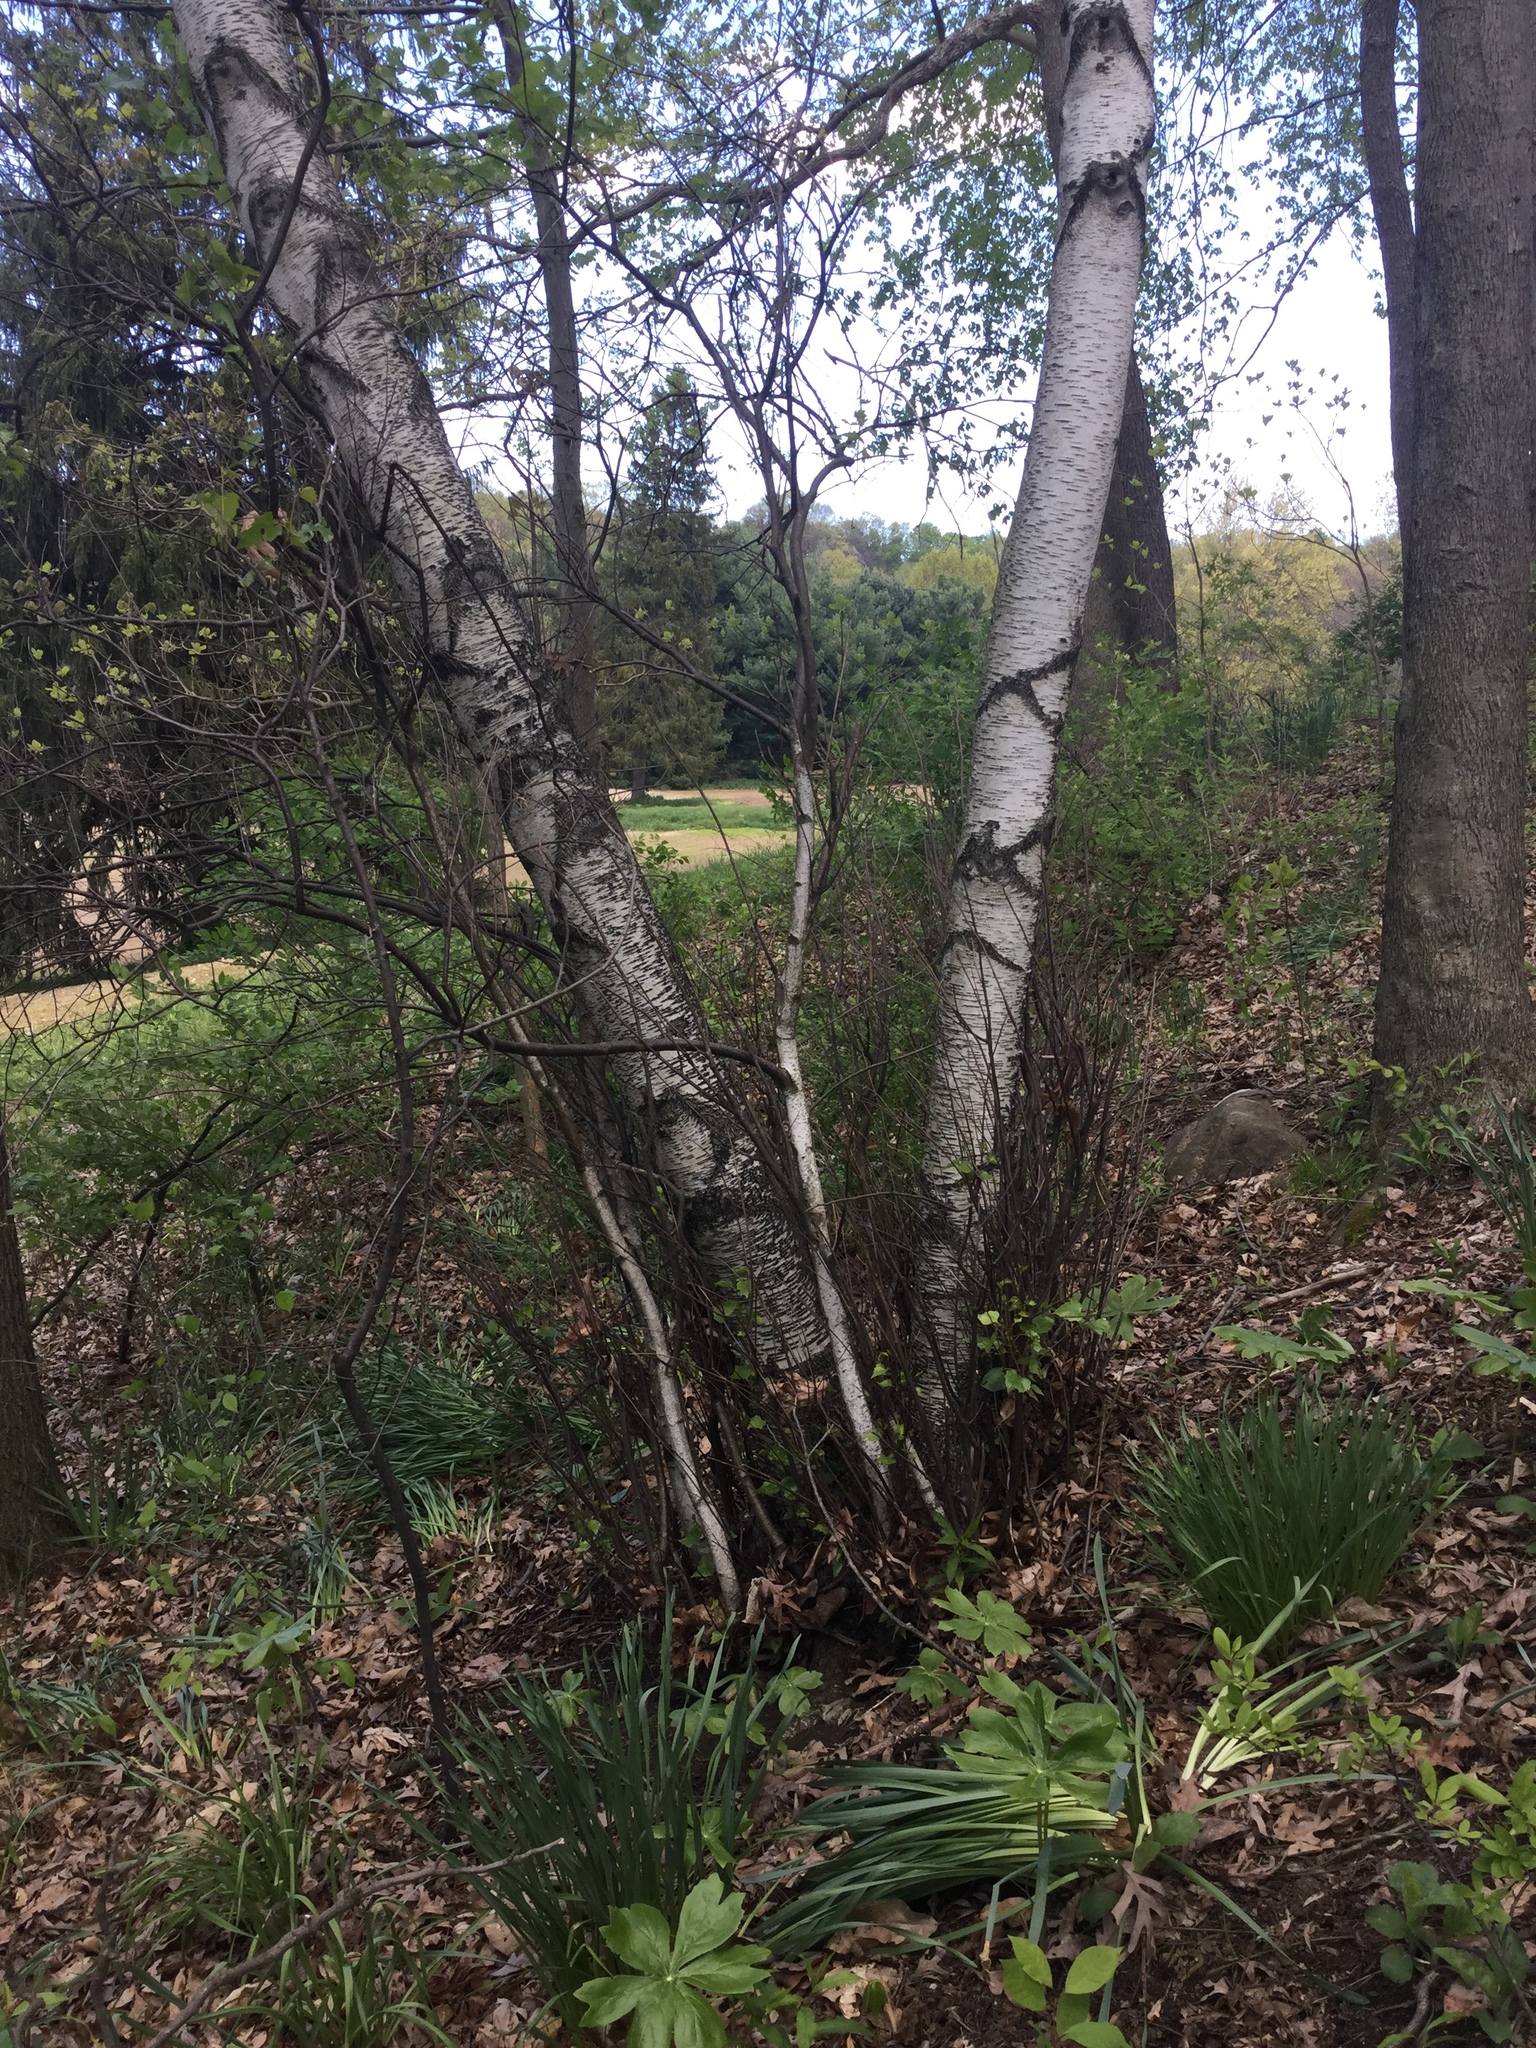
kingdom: Plantae
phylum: Tracheophyta
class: Magnoliopsida
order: Fagales
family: Betulaceae
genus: Betula
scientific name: Betula populifolia
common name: Fire birch
